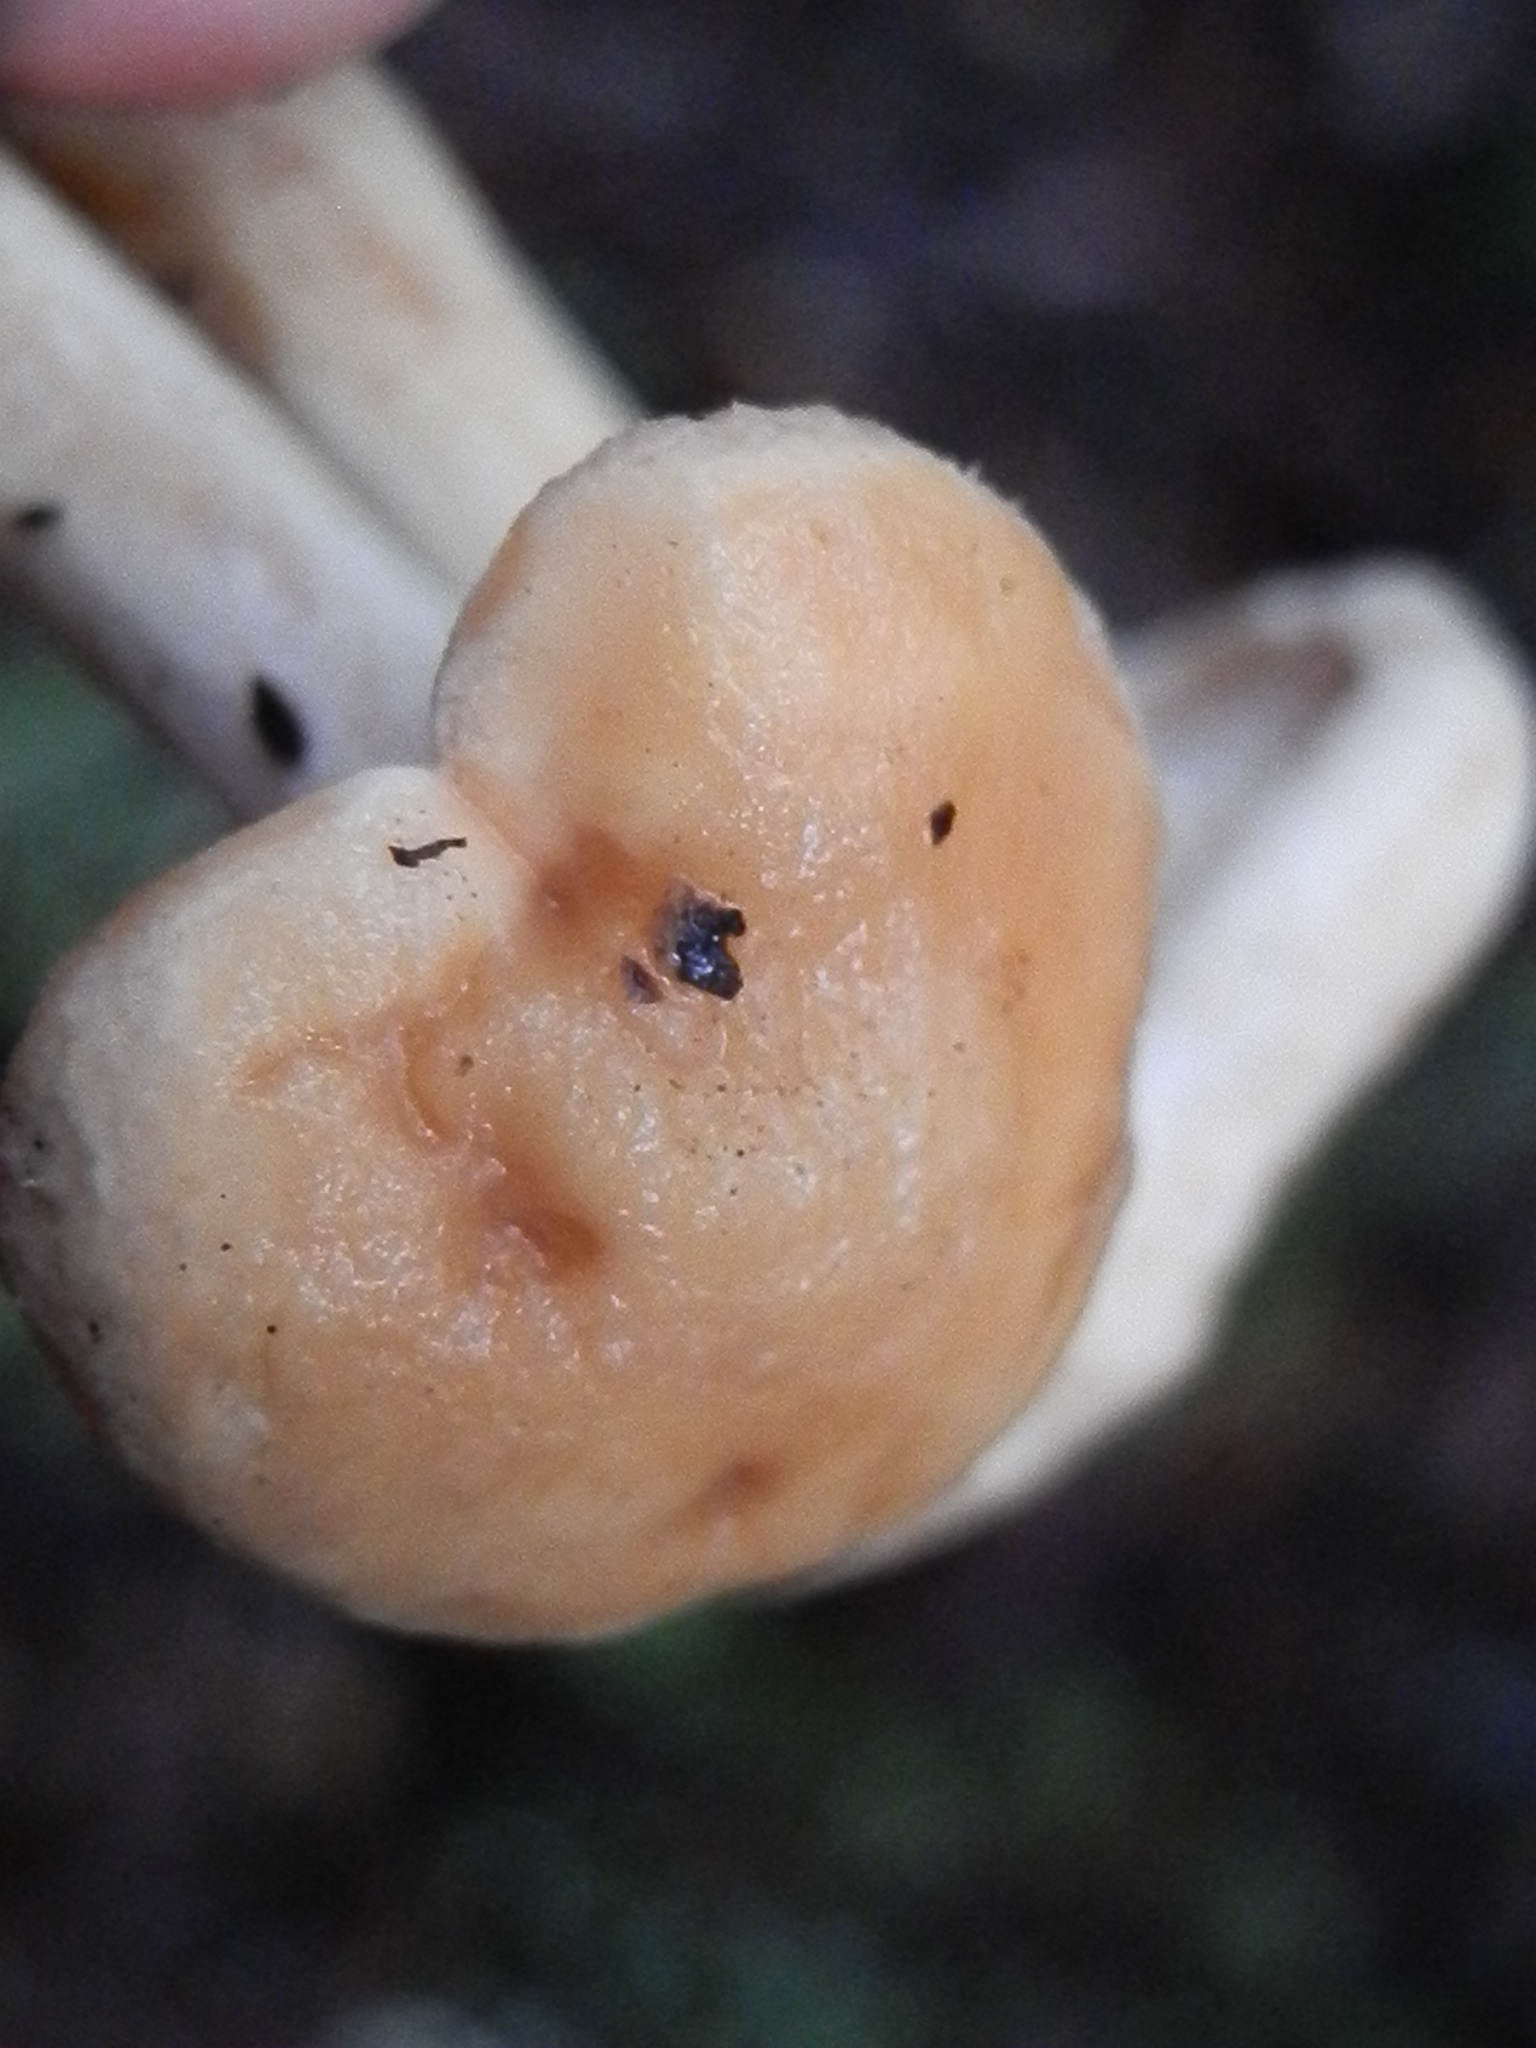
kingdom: Fungi
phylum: Basidiomycota
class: Agaricomycetes
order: Cantharellales
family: Hydnaceae
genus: Hydnum
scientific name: Hydnum oregonense
